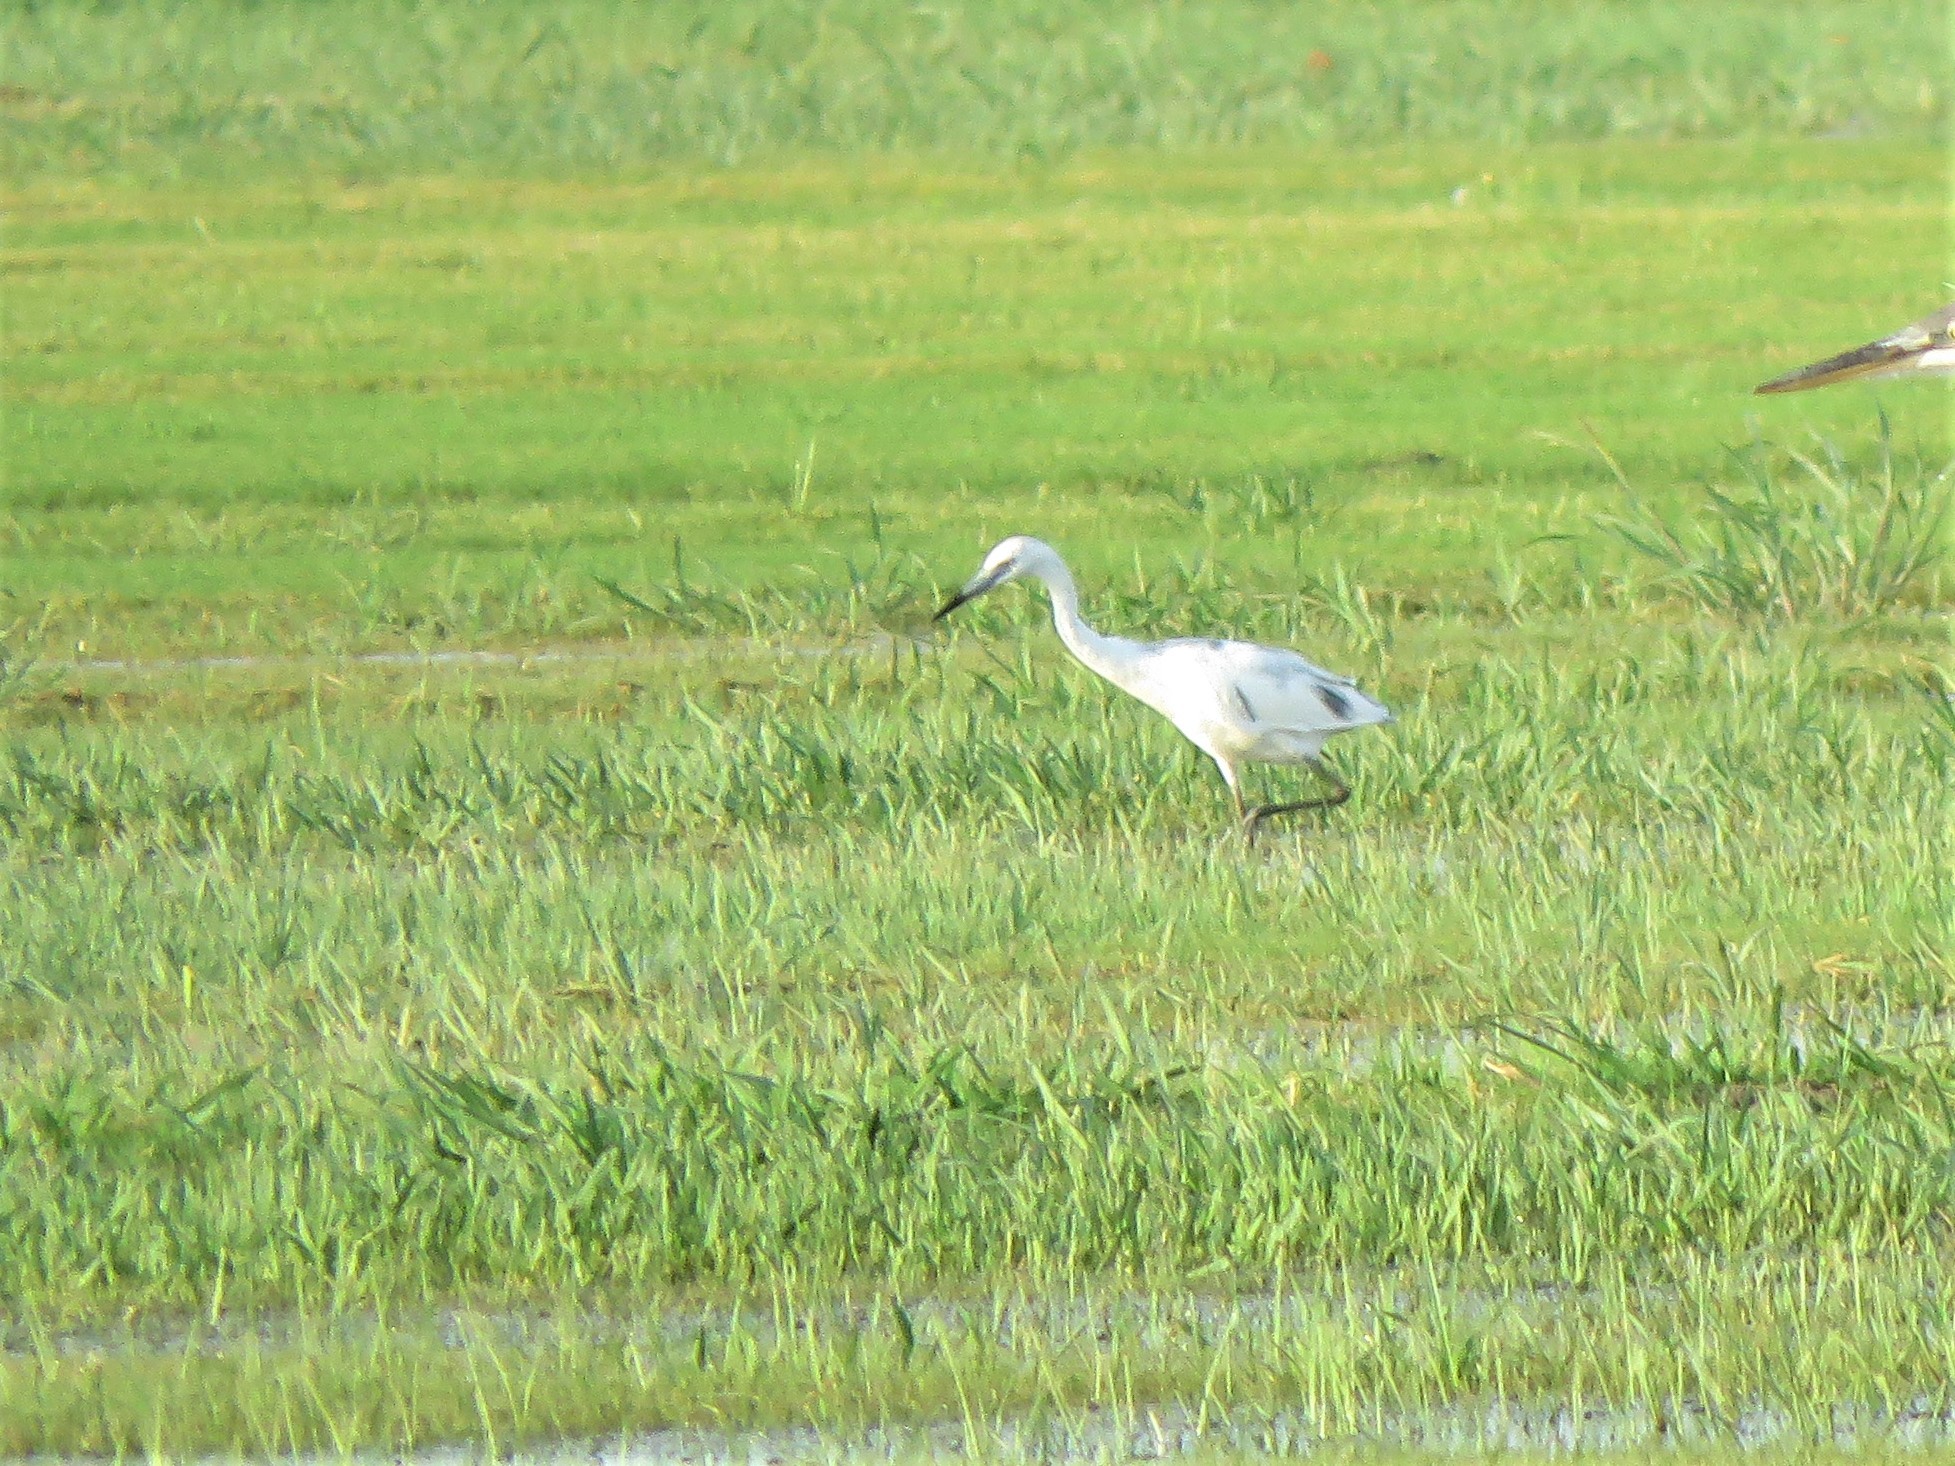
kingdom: Animalia
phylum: Chordata
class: Aves
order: Pelecaniformes
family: Ardeidae
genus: Egretta
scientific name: Egretta caerulea
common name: Little blue heron
